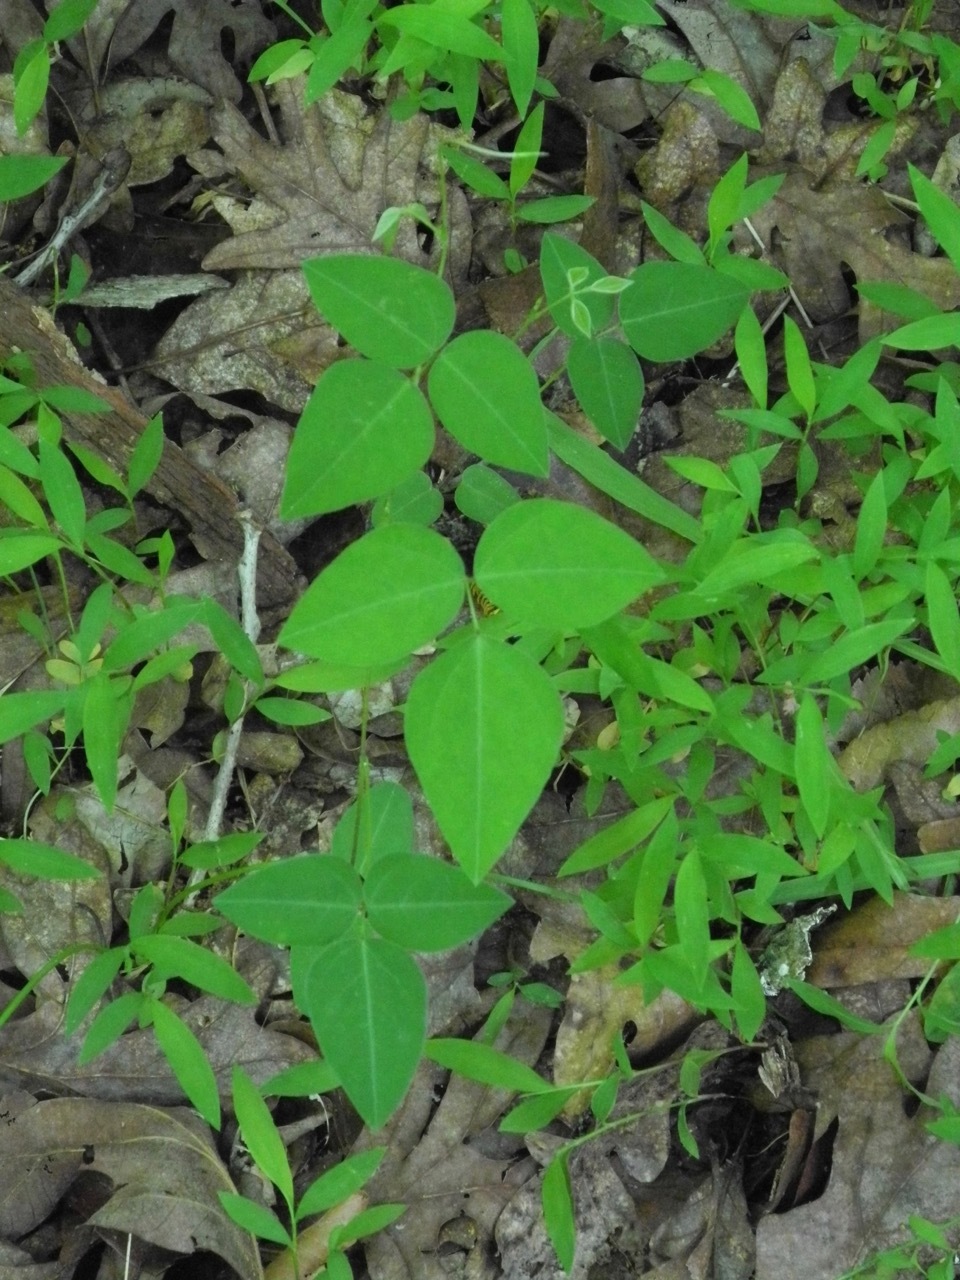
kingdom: Plantae
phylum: Tracheophyta
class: Magnoliopsida
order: Fabales
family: Fabaceae
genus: Apios
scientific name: Apios americana
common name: American potato-bean
